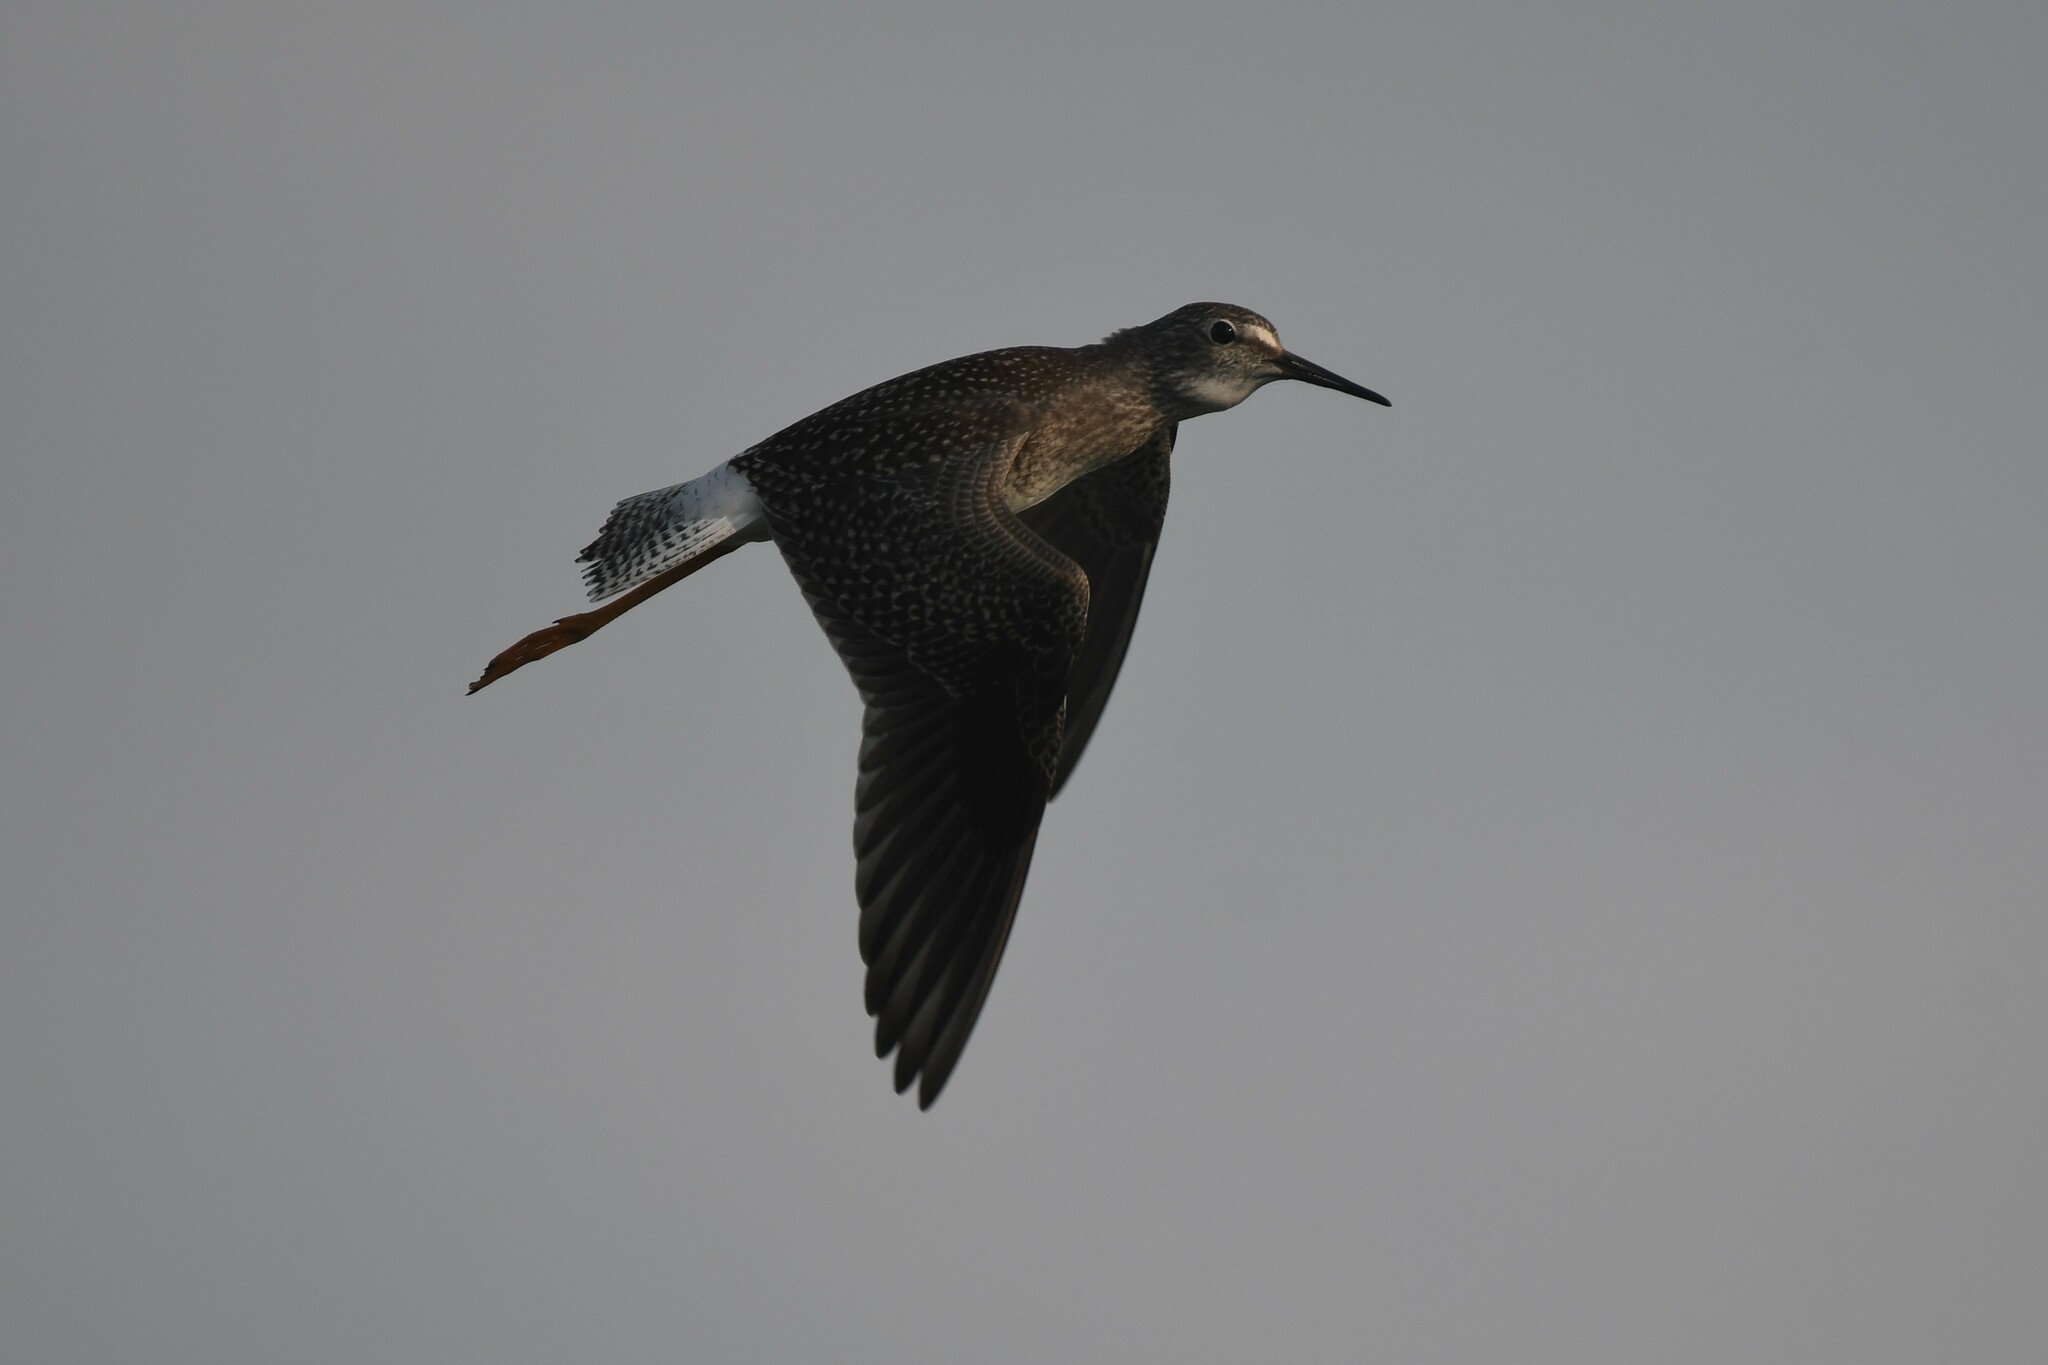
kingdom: Animalia
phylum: Chordata
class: Aves
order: Charadriiformes
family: Scolopacidae
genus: Tringa
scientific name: Tringa flavipes
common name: Lesser yellowlegs
